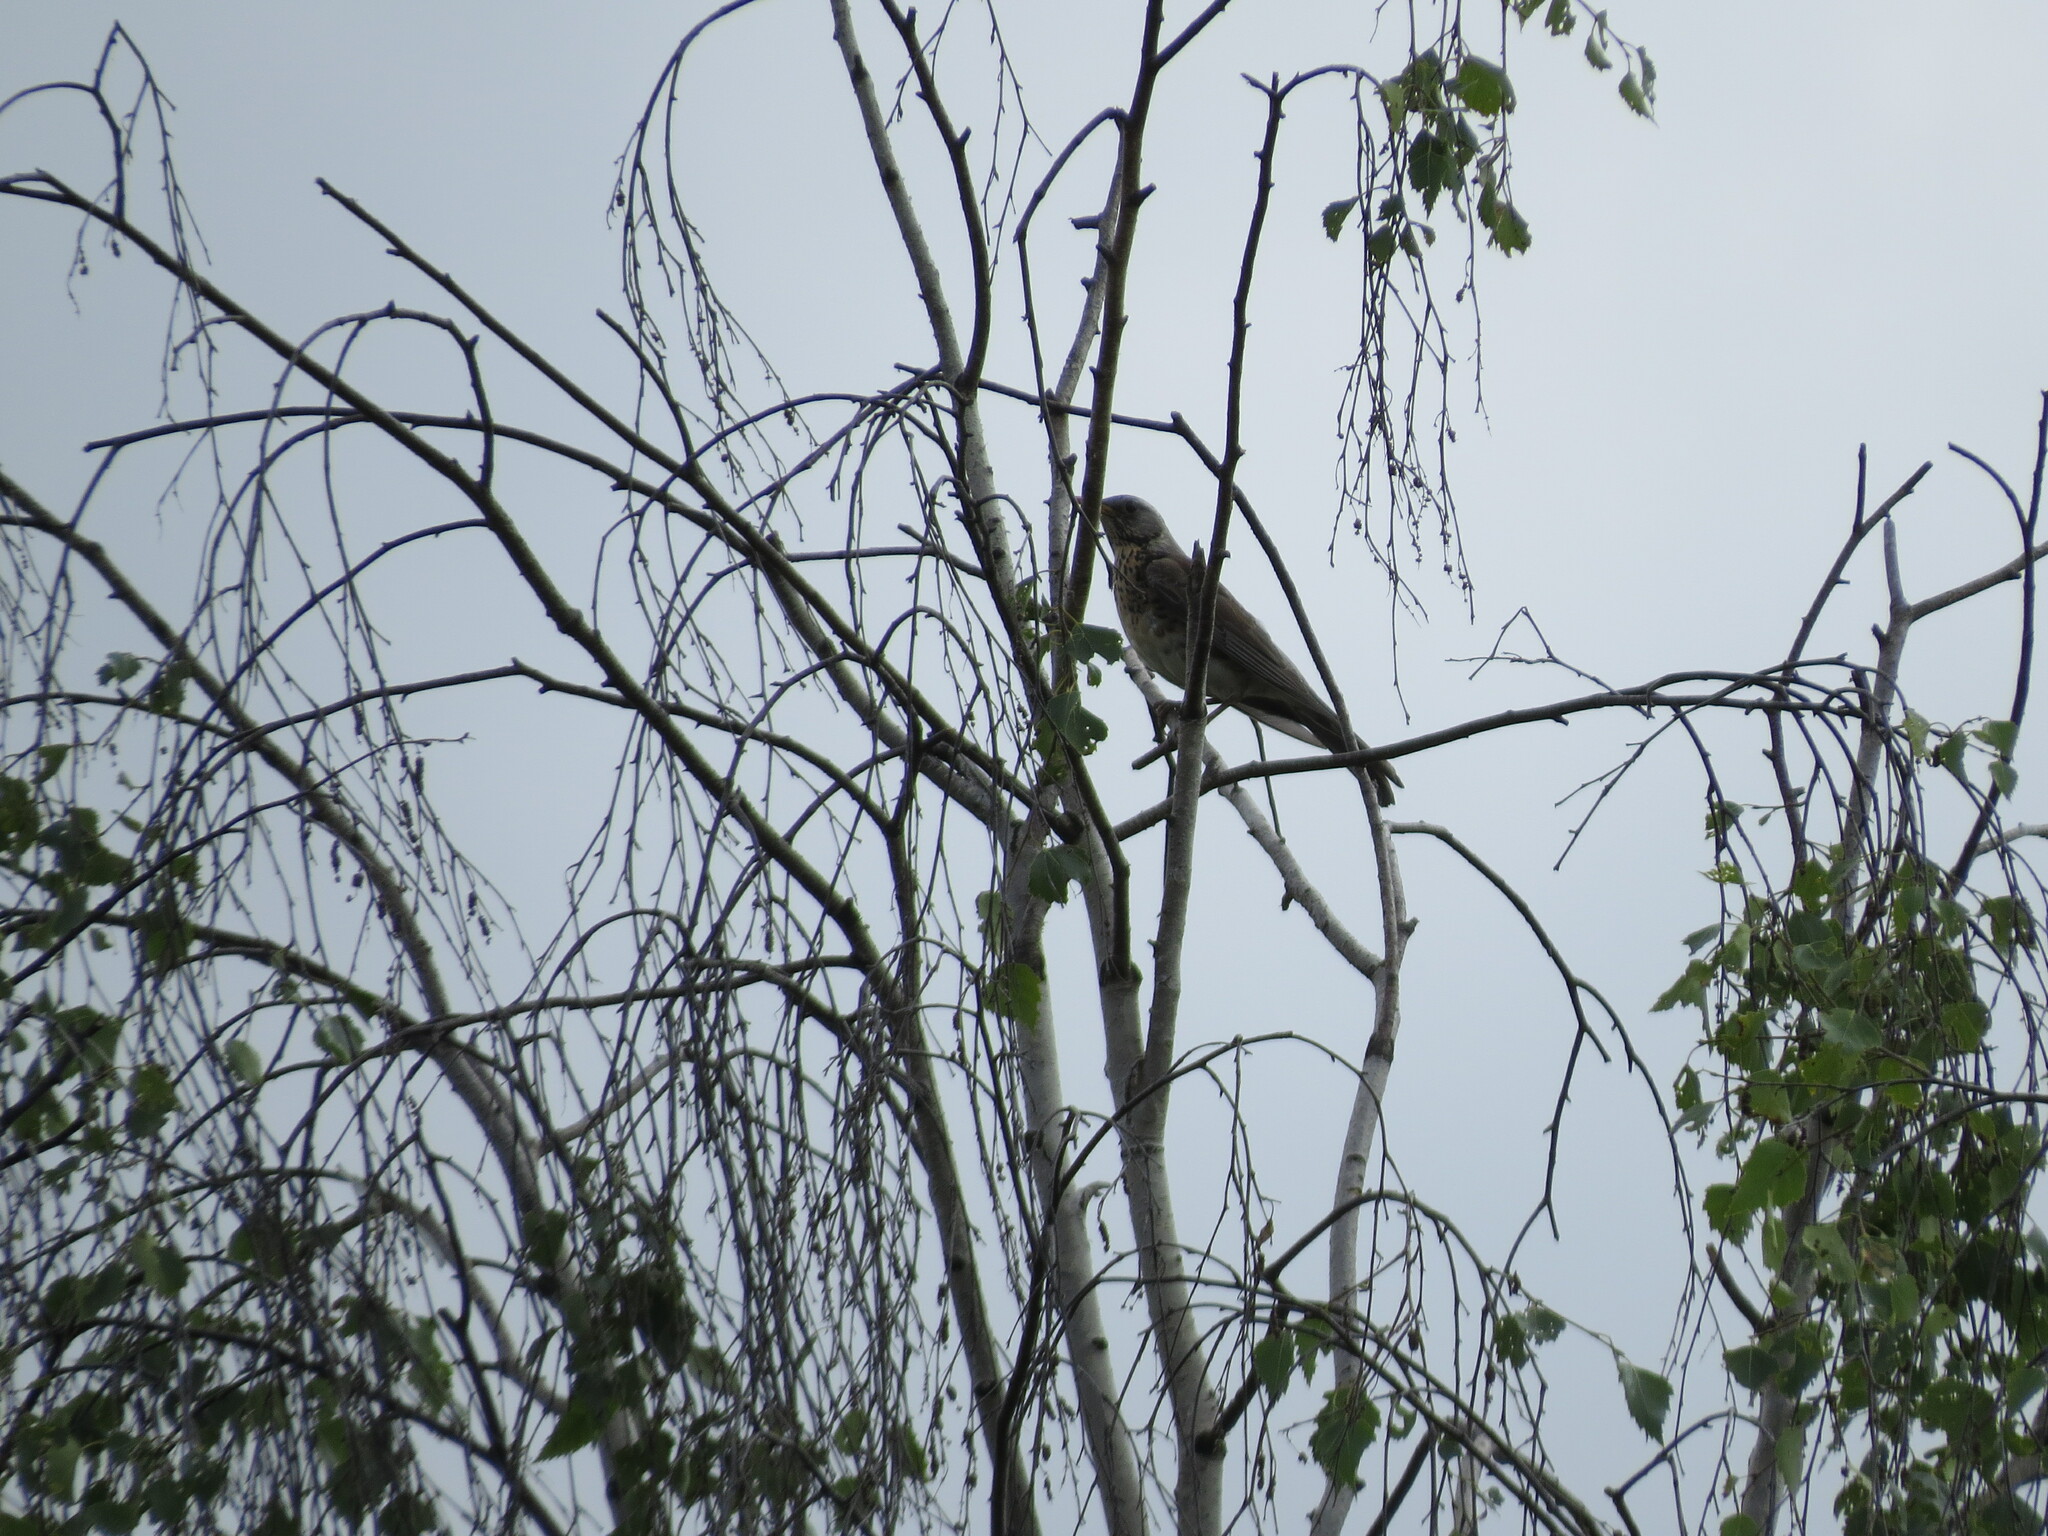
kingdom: Animalia
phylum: Chordata
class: Aves
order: Passeriformes
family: Turdidae
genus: Turdus
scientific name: Turdus pilaris
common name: Fieldfare
